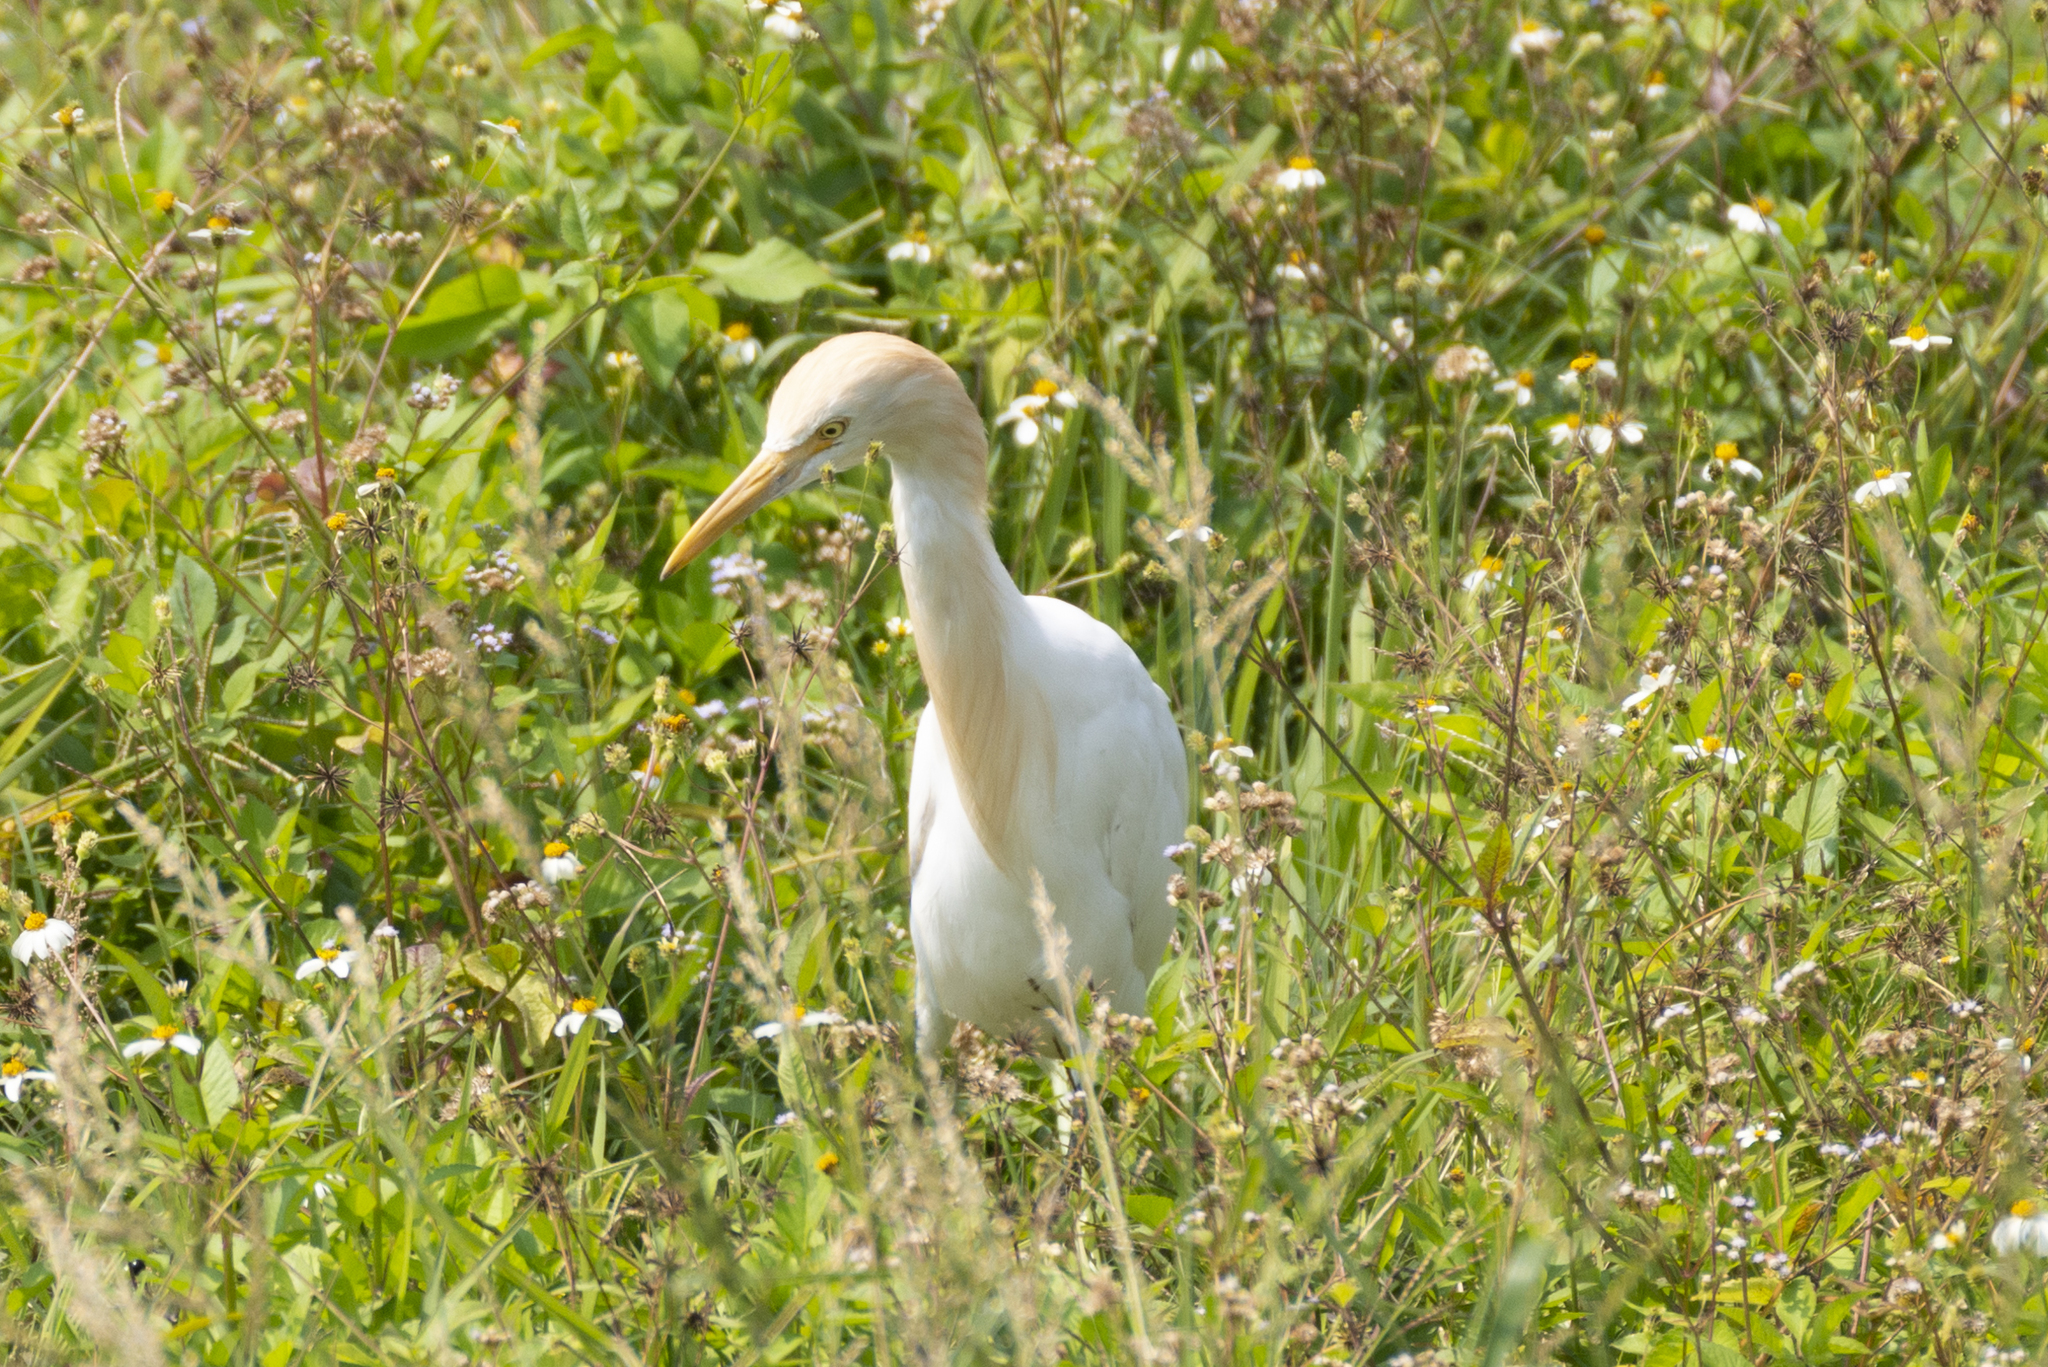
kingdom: Animalia
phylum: Chordata
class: Aves
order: Pelecaniformes
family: Ardeidae
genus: Bubulcus
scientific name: Bubulcus coromandus
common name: Eastern cattle egret
